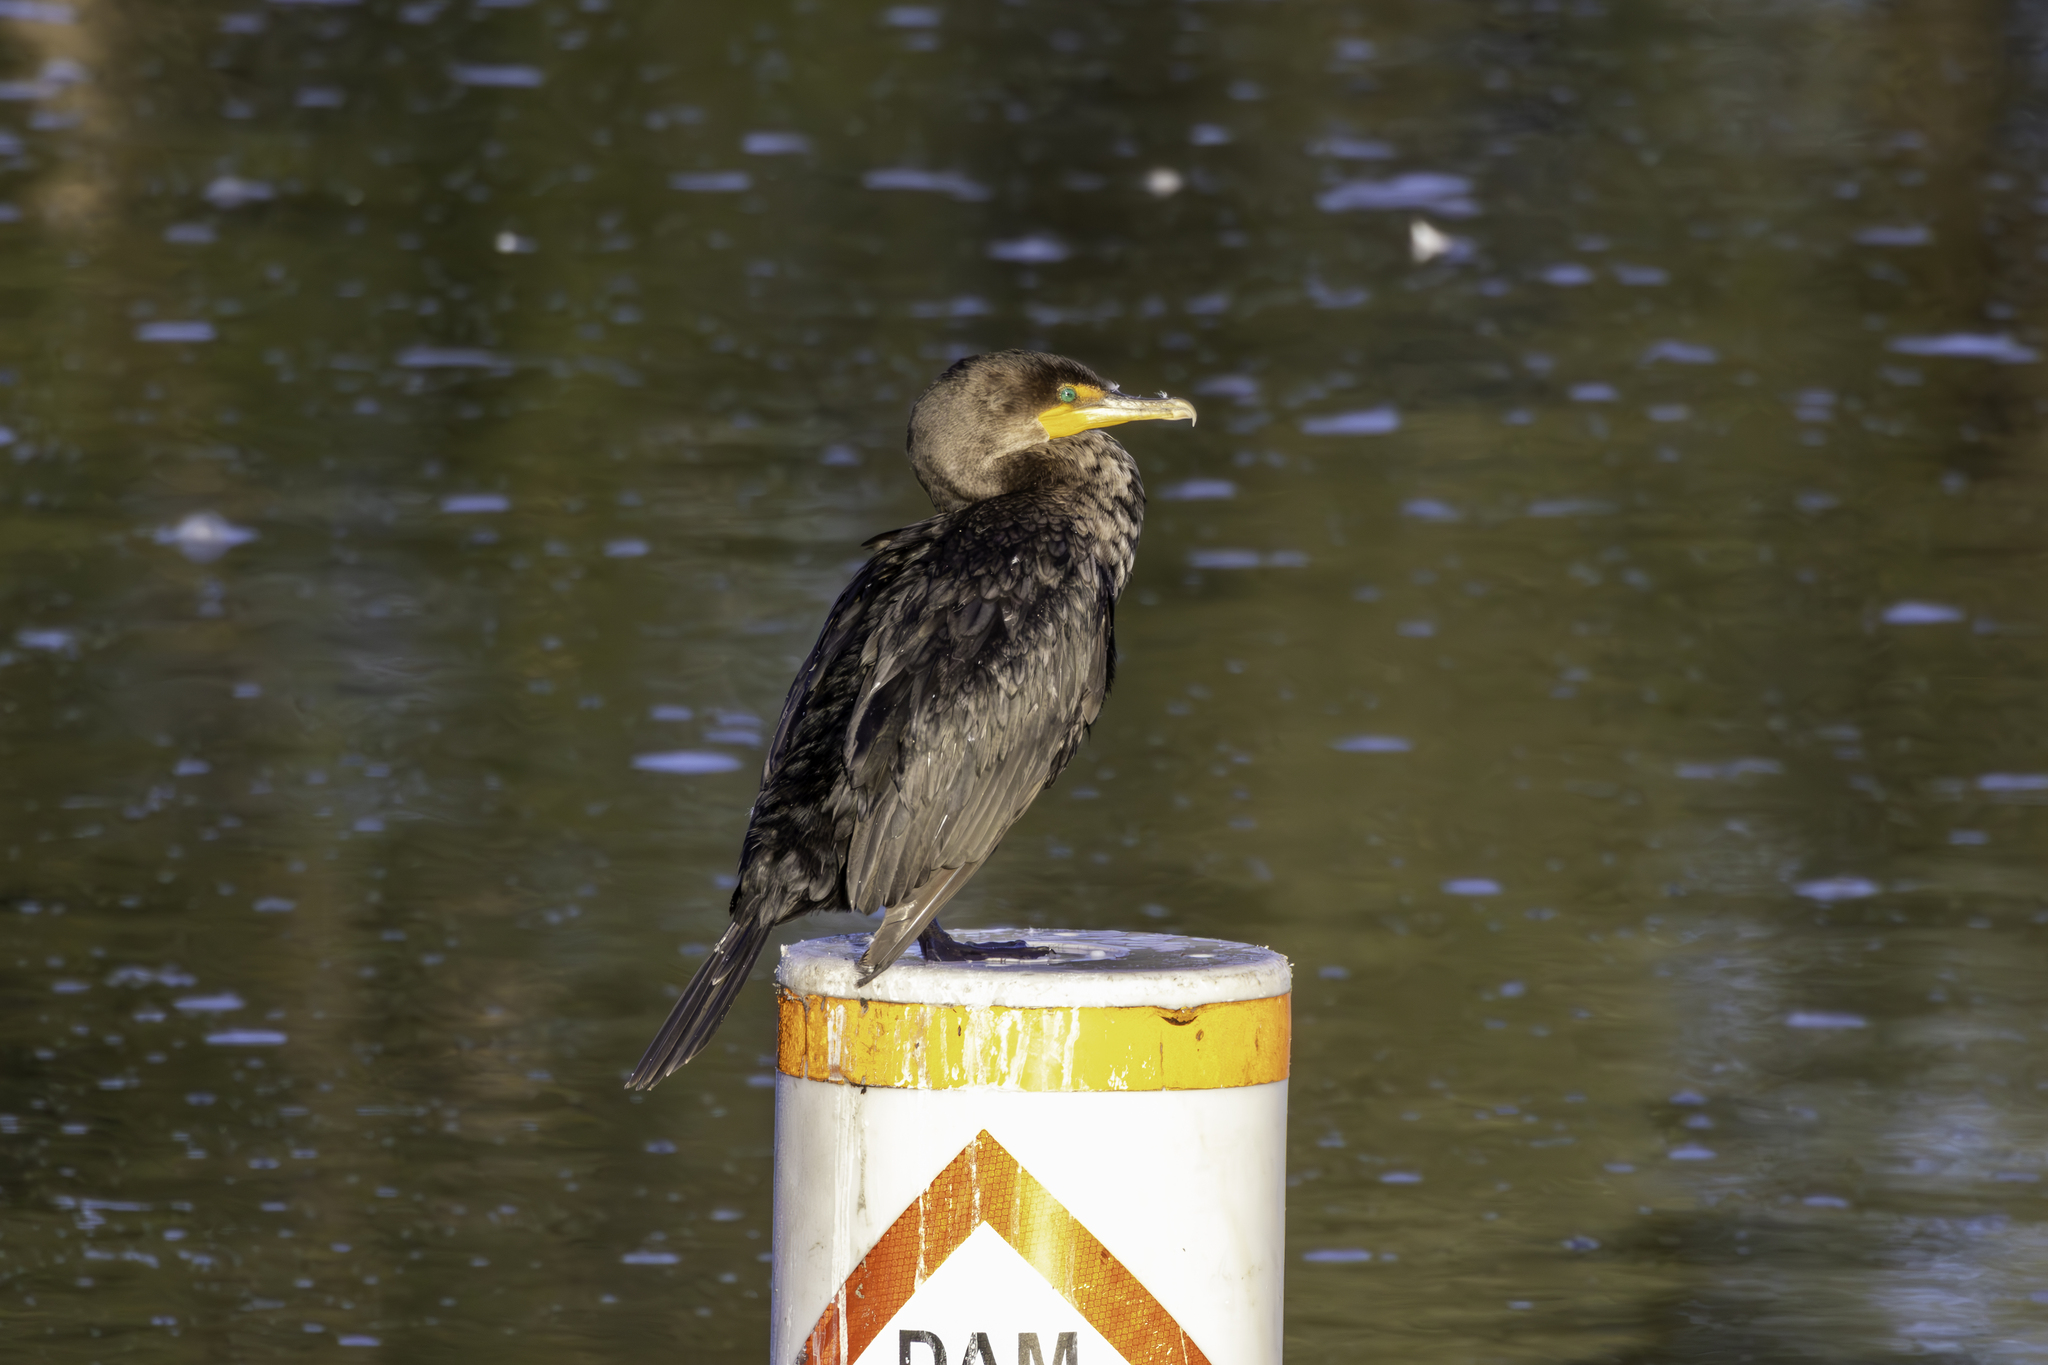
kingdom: Animalia
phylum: Chordata
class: Aves
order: Suliformes
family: Phalacrocoracidae
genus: Phalacrocorax
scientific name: Phalacrocorax auritus
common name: Double-crested cormorant
